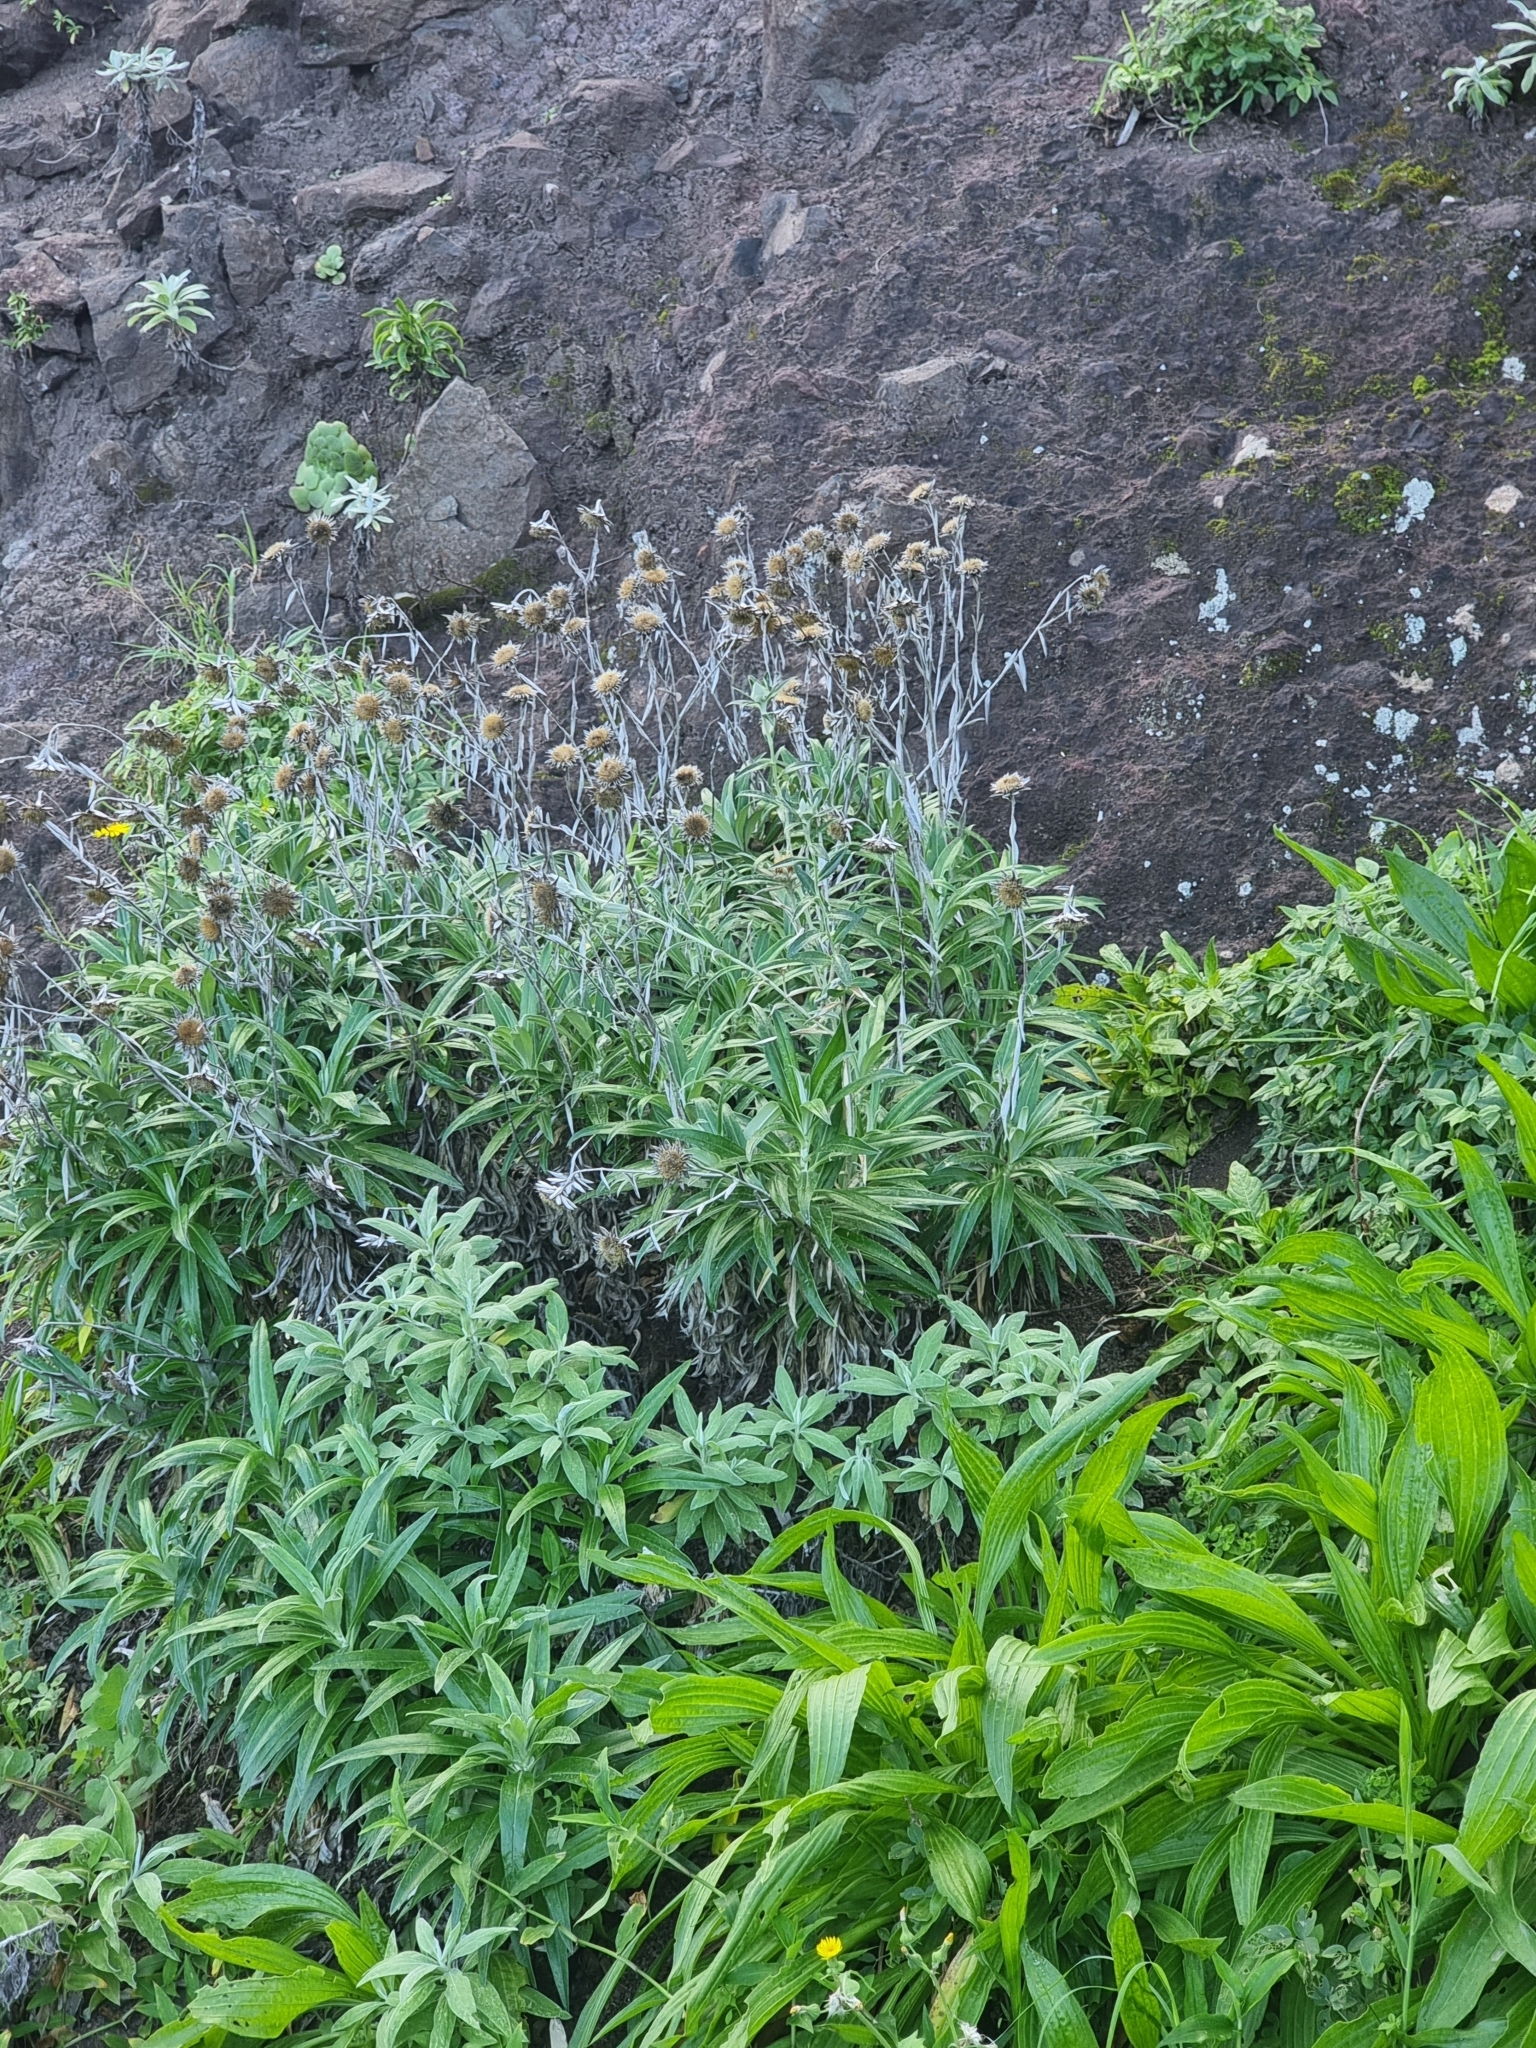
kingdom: Plantae
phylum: Tracheophyta
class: Magnoliopsida
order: Asterales
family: Asteraceae
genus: Carlina
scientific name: Carlina salicifolia
